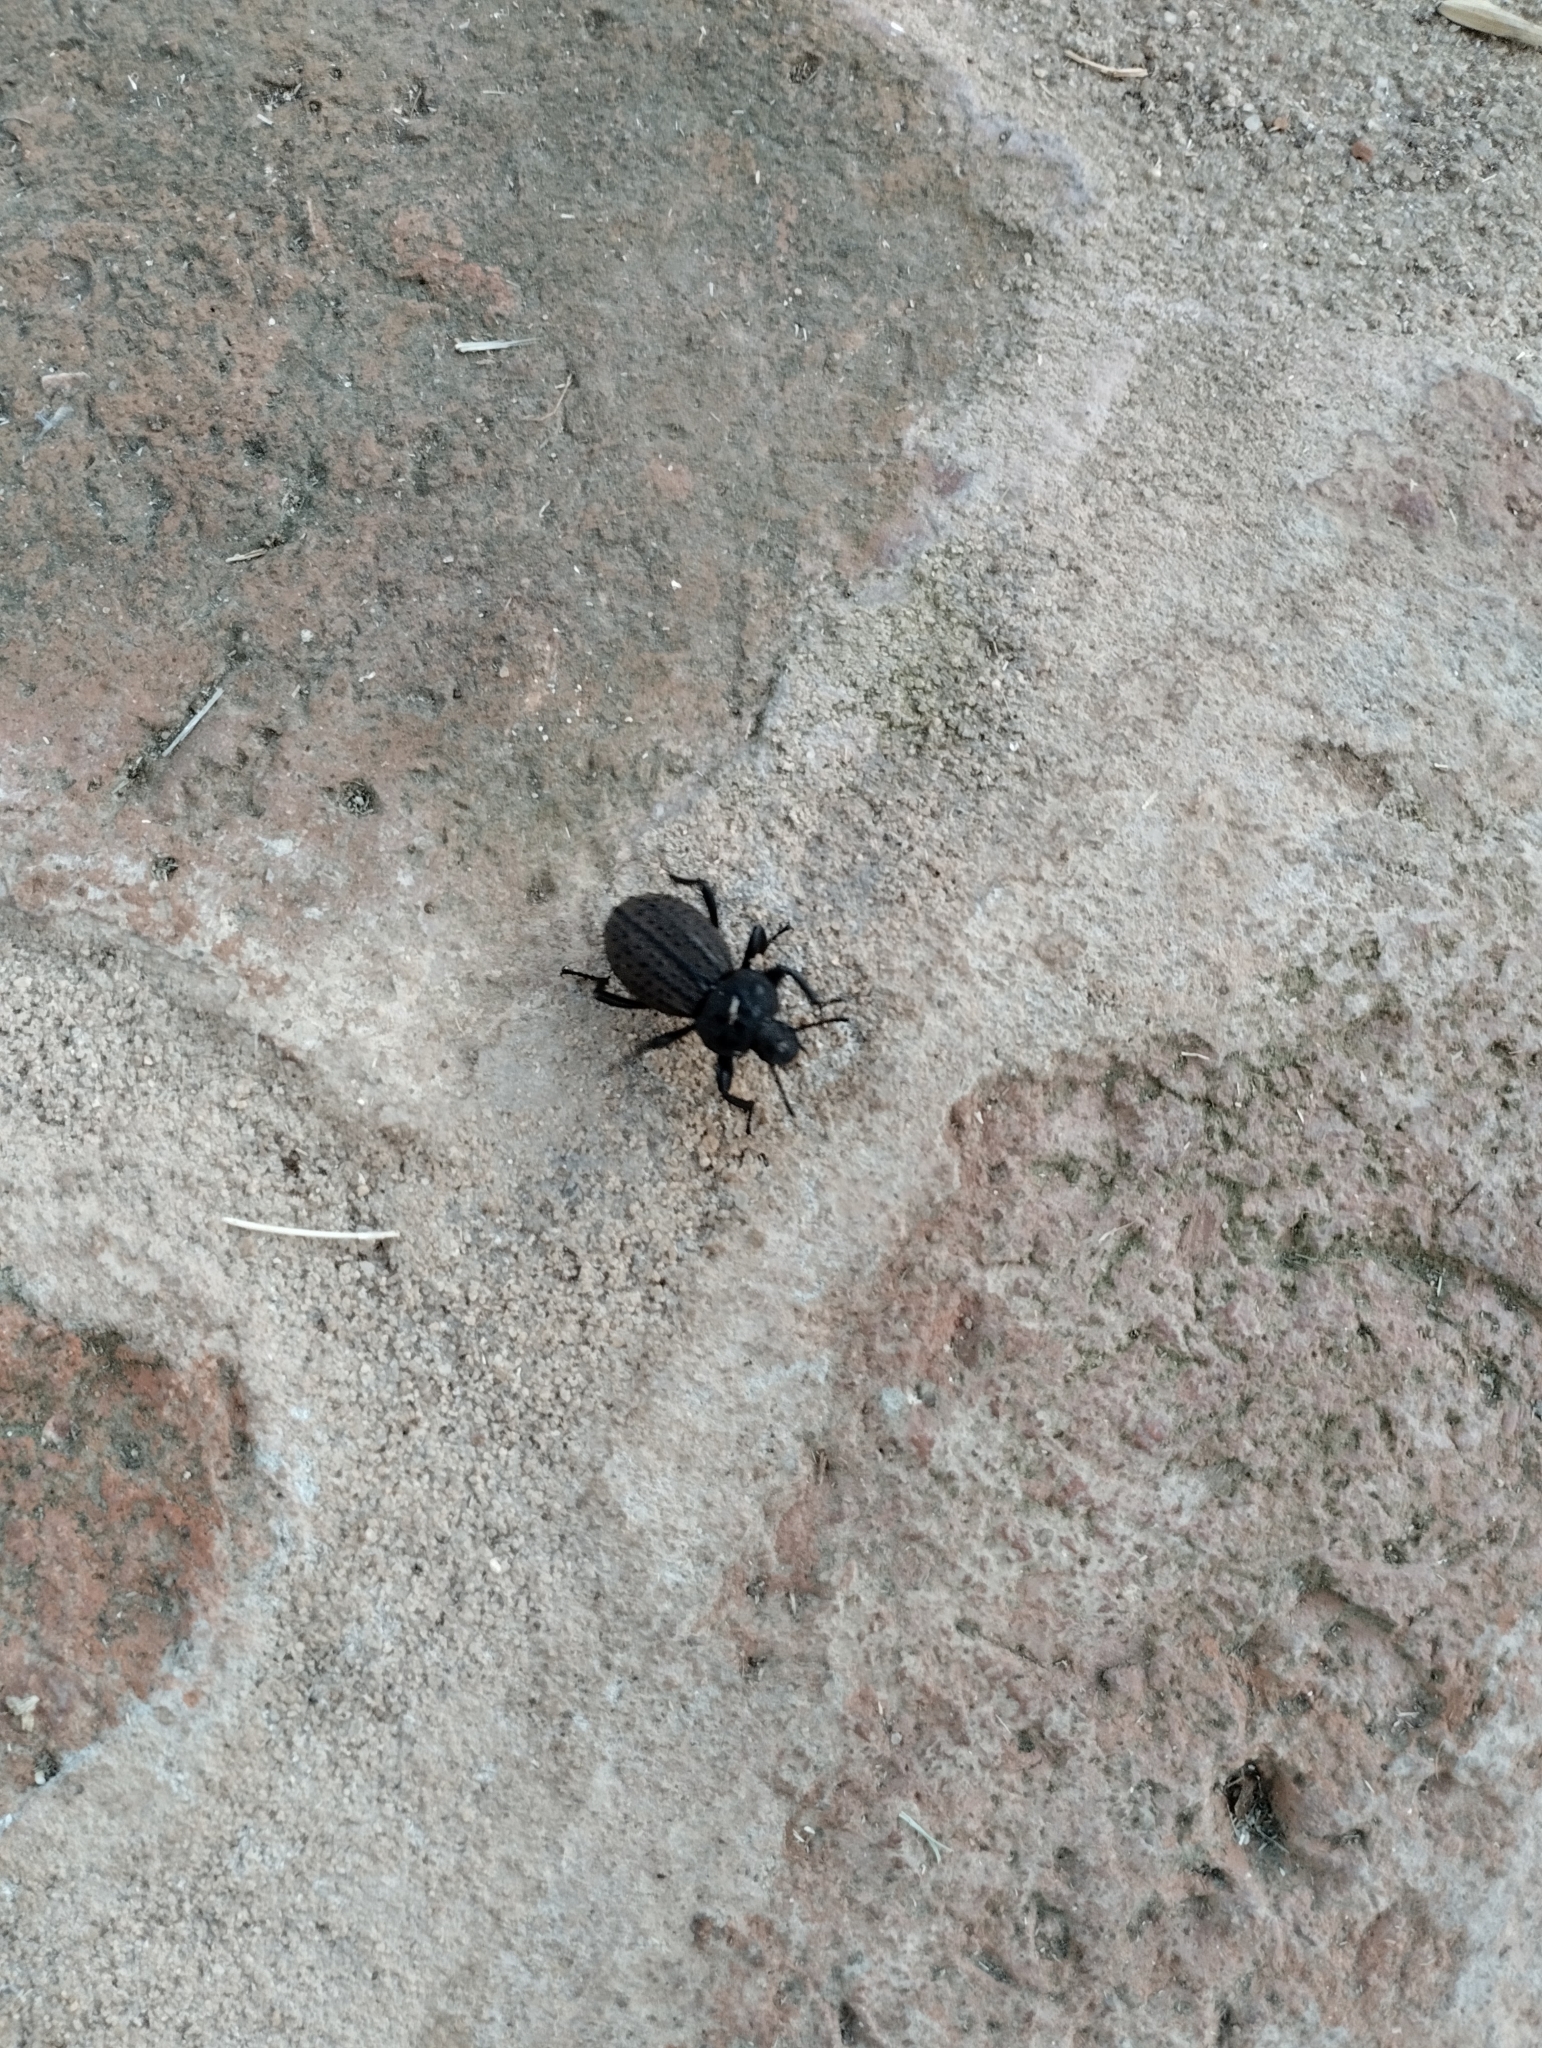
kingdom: Animalia
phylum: Arthropoda
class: Insecta
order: Coleoptera
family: Tenebrionidae
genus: Scotobius
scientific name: Scotobius pilularius
